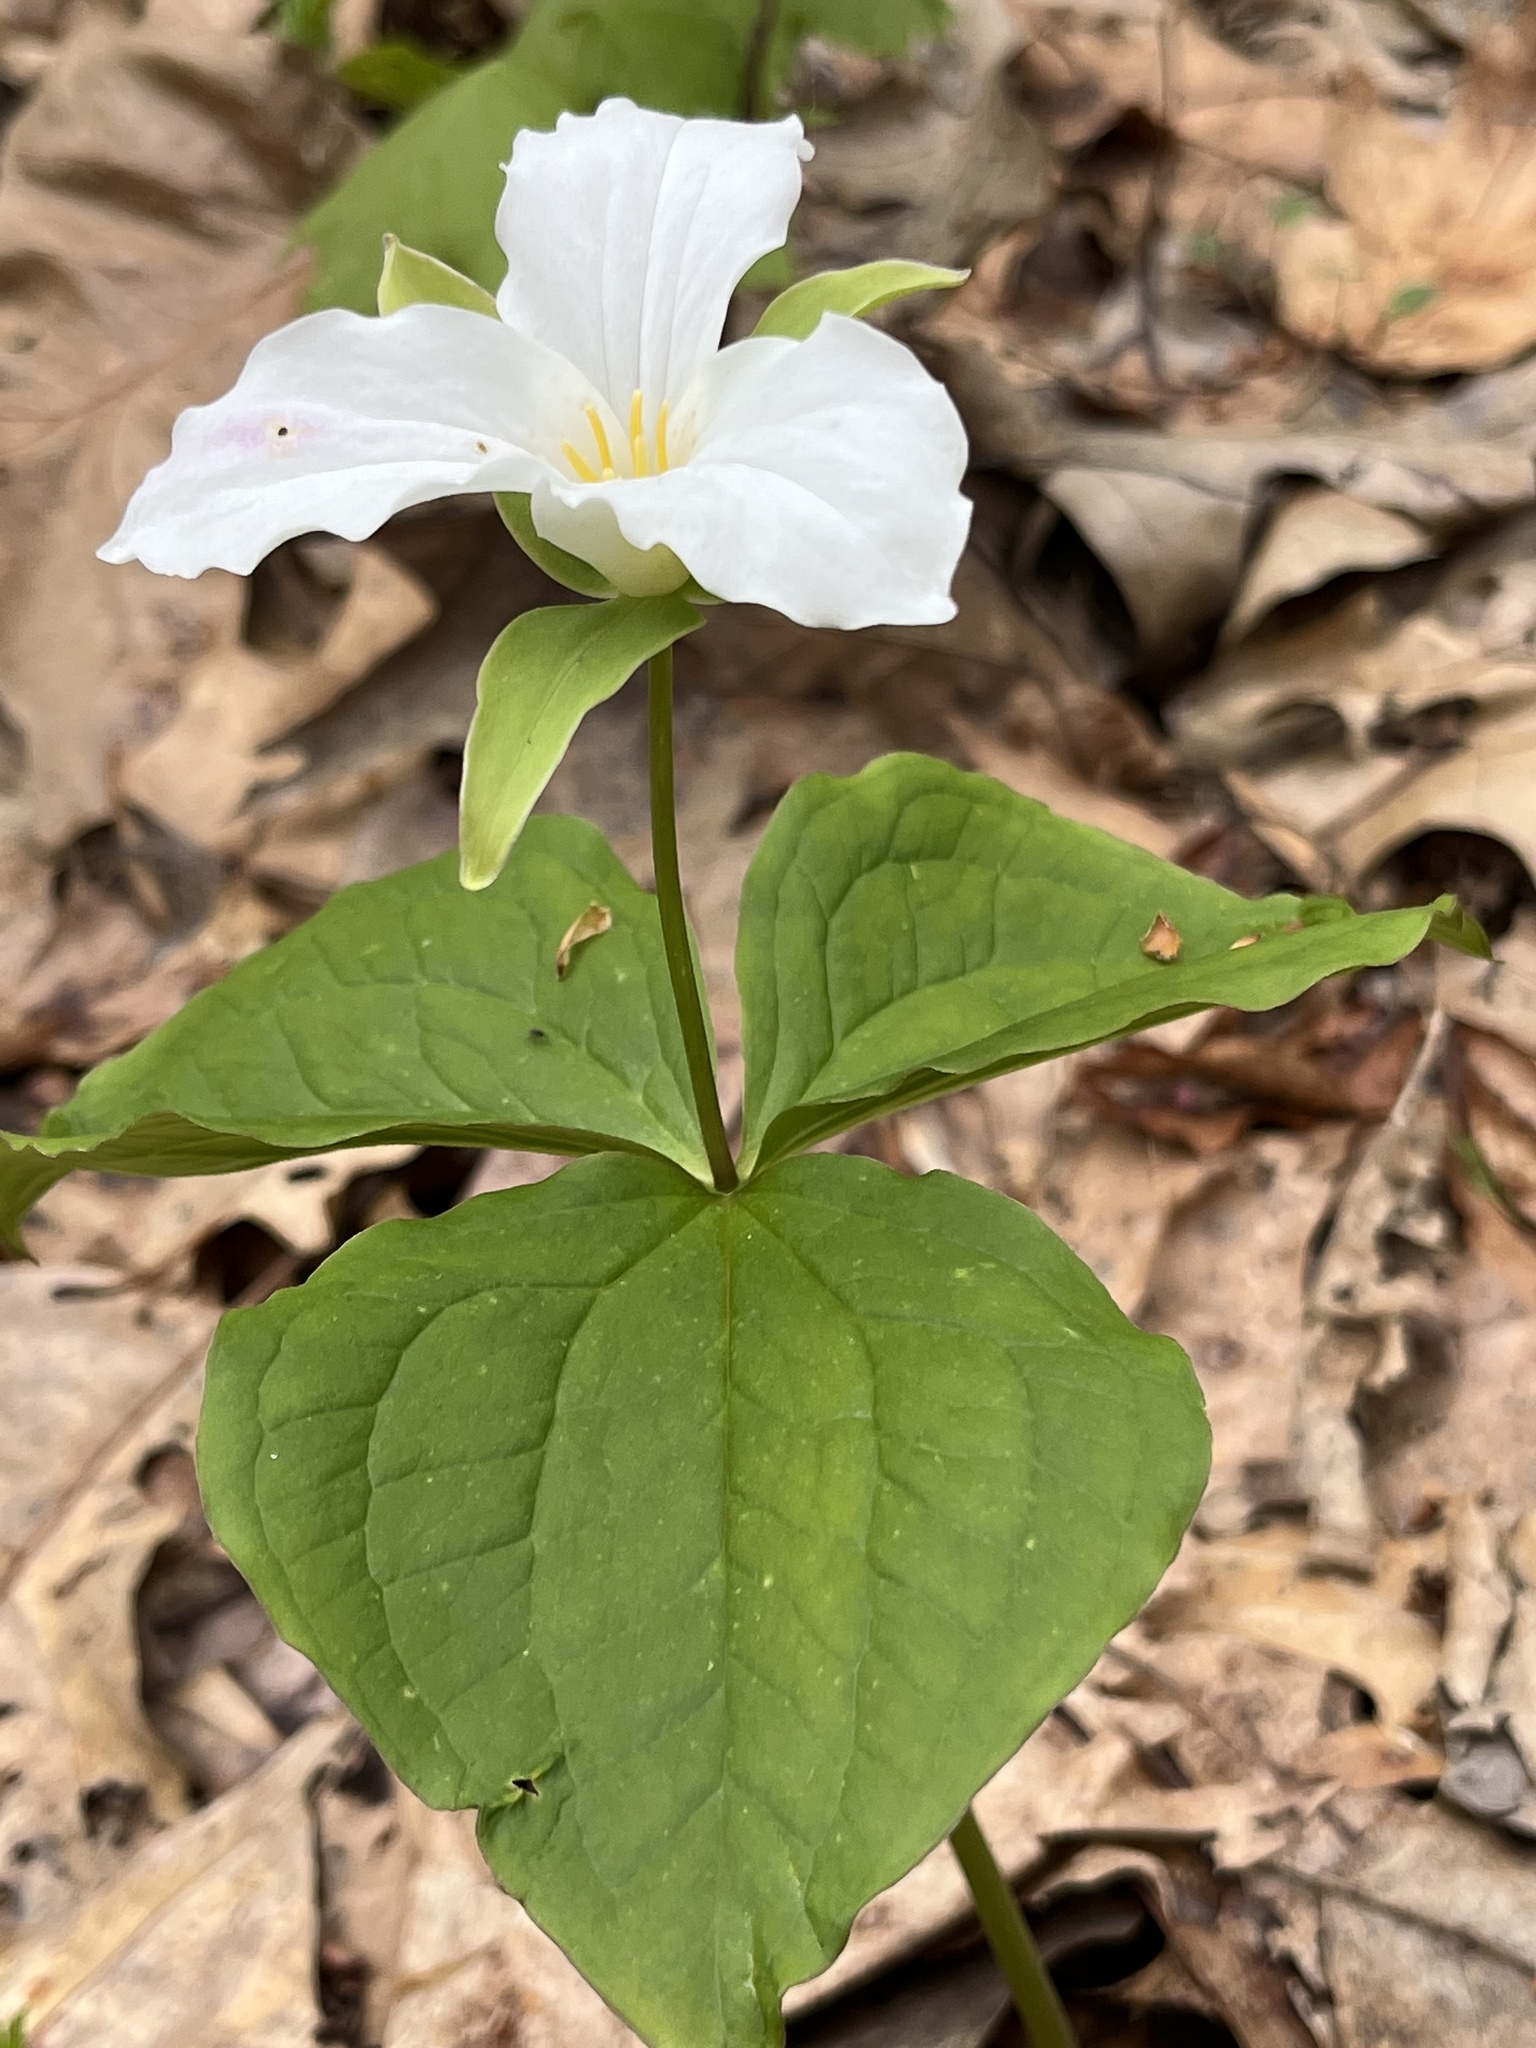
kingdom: Plantae
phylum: Tracheophyta
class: Liliopsida
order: Liliales
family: Melanthiaceae
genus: Trillium
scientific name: Trillium grandiflorum
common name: Great white trillium
